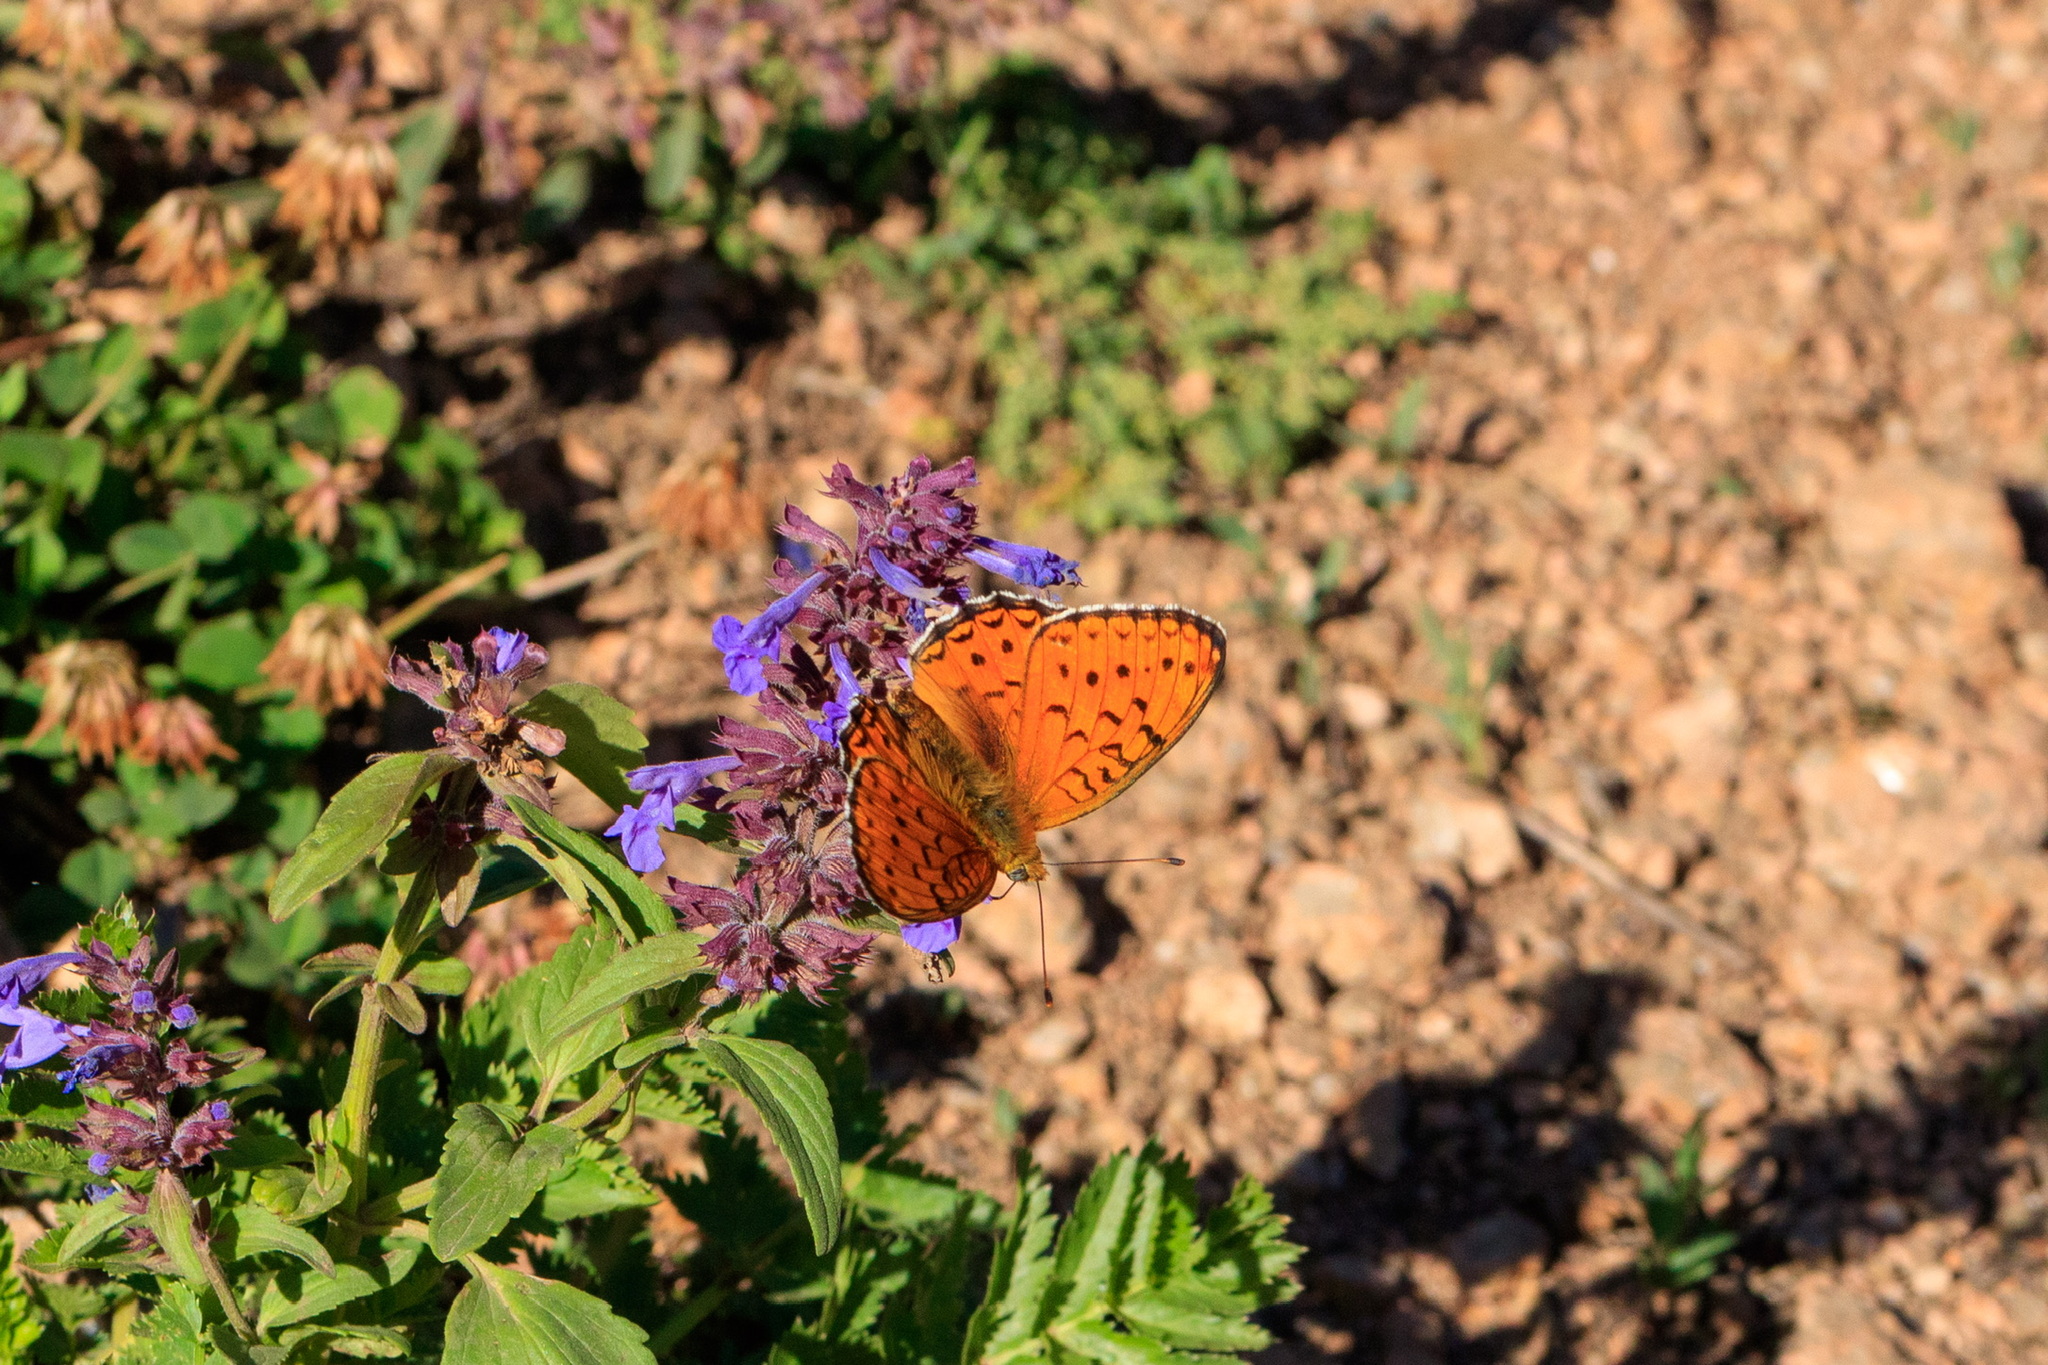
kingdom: Animalia
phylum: Arthropoda
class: Insecta
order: Lepidoptera
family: Nymphalidae
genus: Fabriciana
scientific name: Fabriciana niobe
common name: Niobe fritillary
